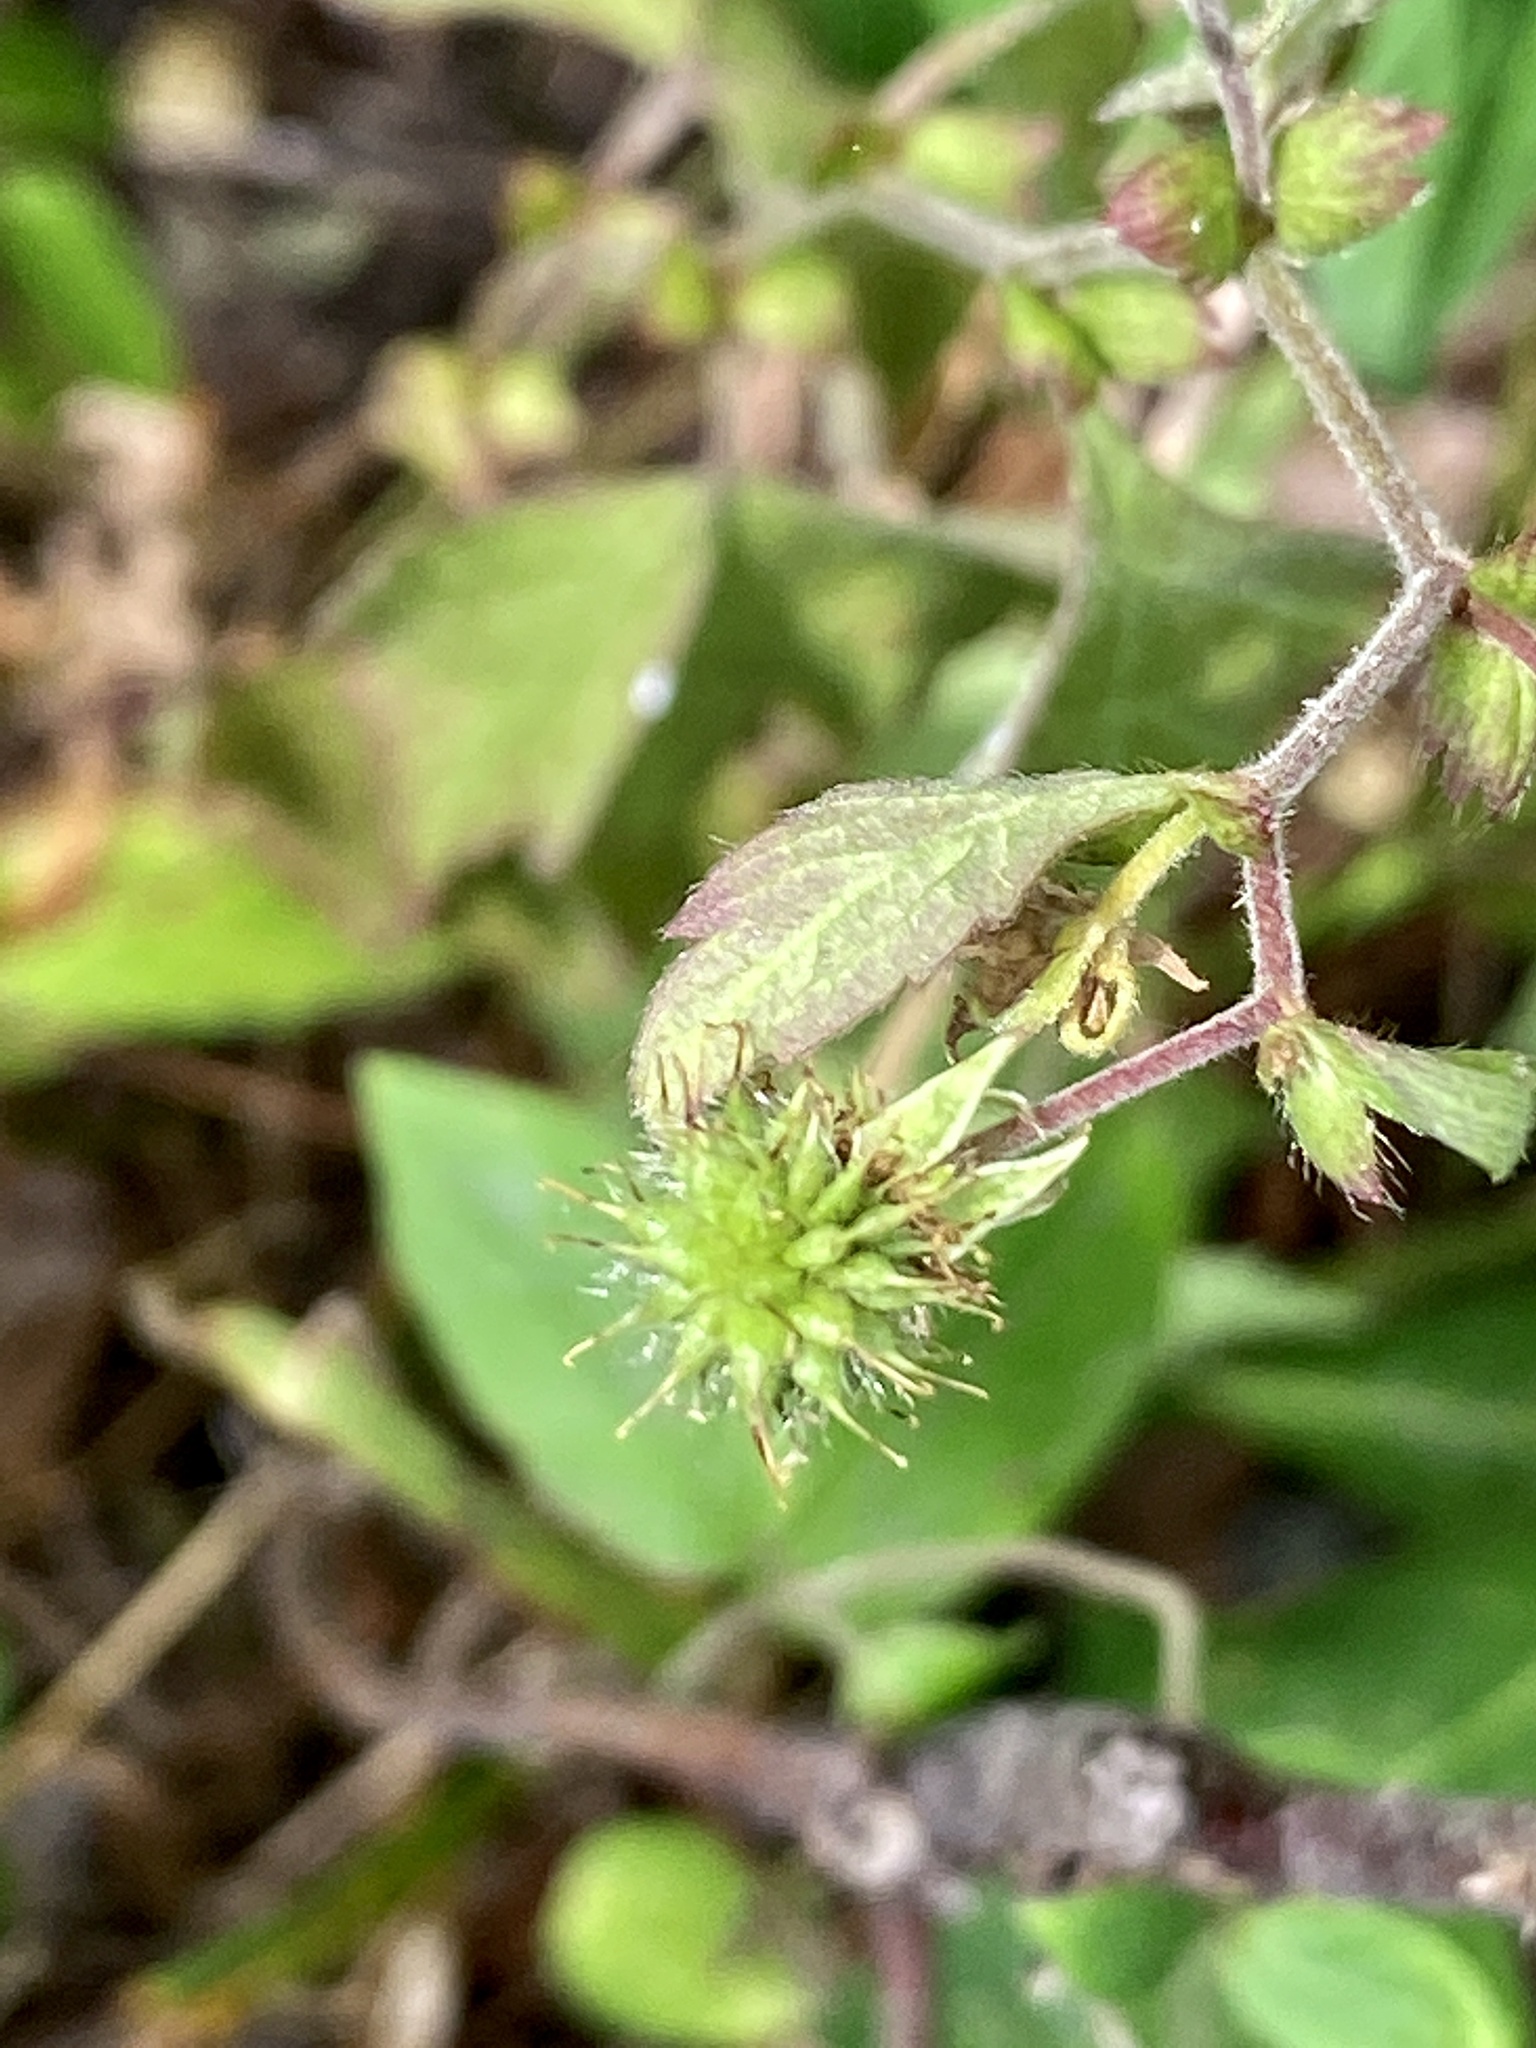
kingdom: Plantae
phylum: Tracheophyta
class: Magnoliopsida
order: Rosales
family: Rosaceae
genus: Geum
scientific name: Geum canadense
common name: White avens
